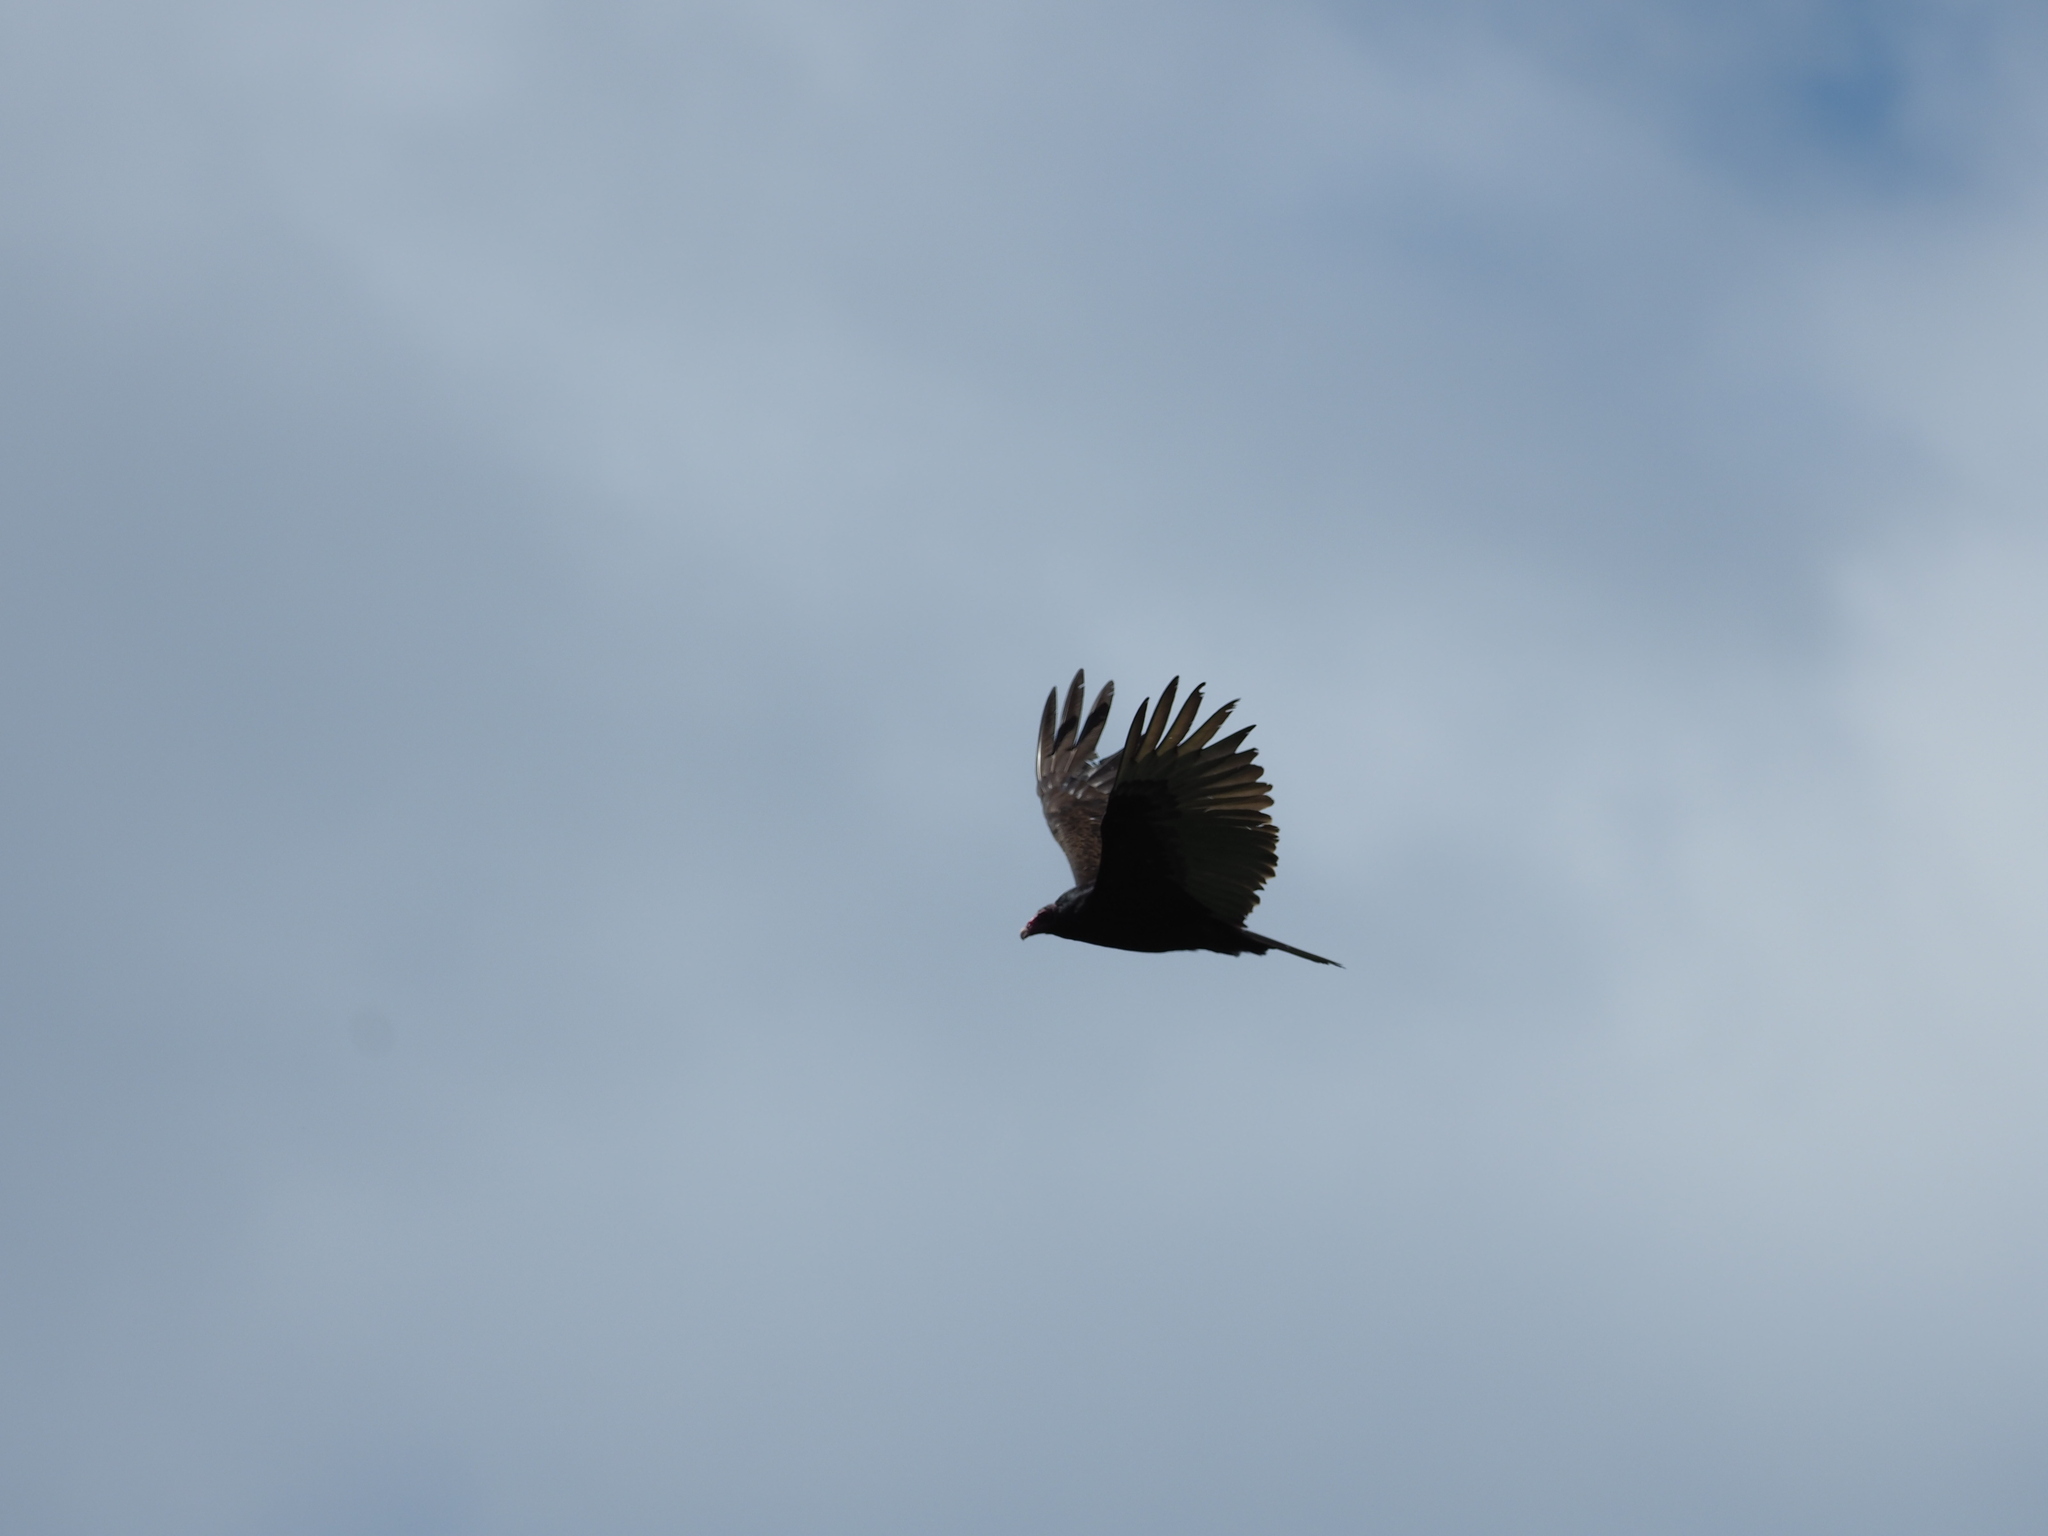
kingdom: Animalia
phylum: Chordata
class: Aves
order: Accipitriformes
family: Cathartidae
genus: Cathartes
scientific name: Cathartes aura
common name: Turkey vulture
